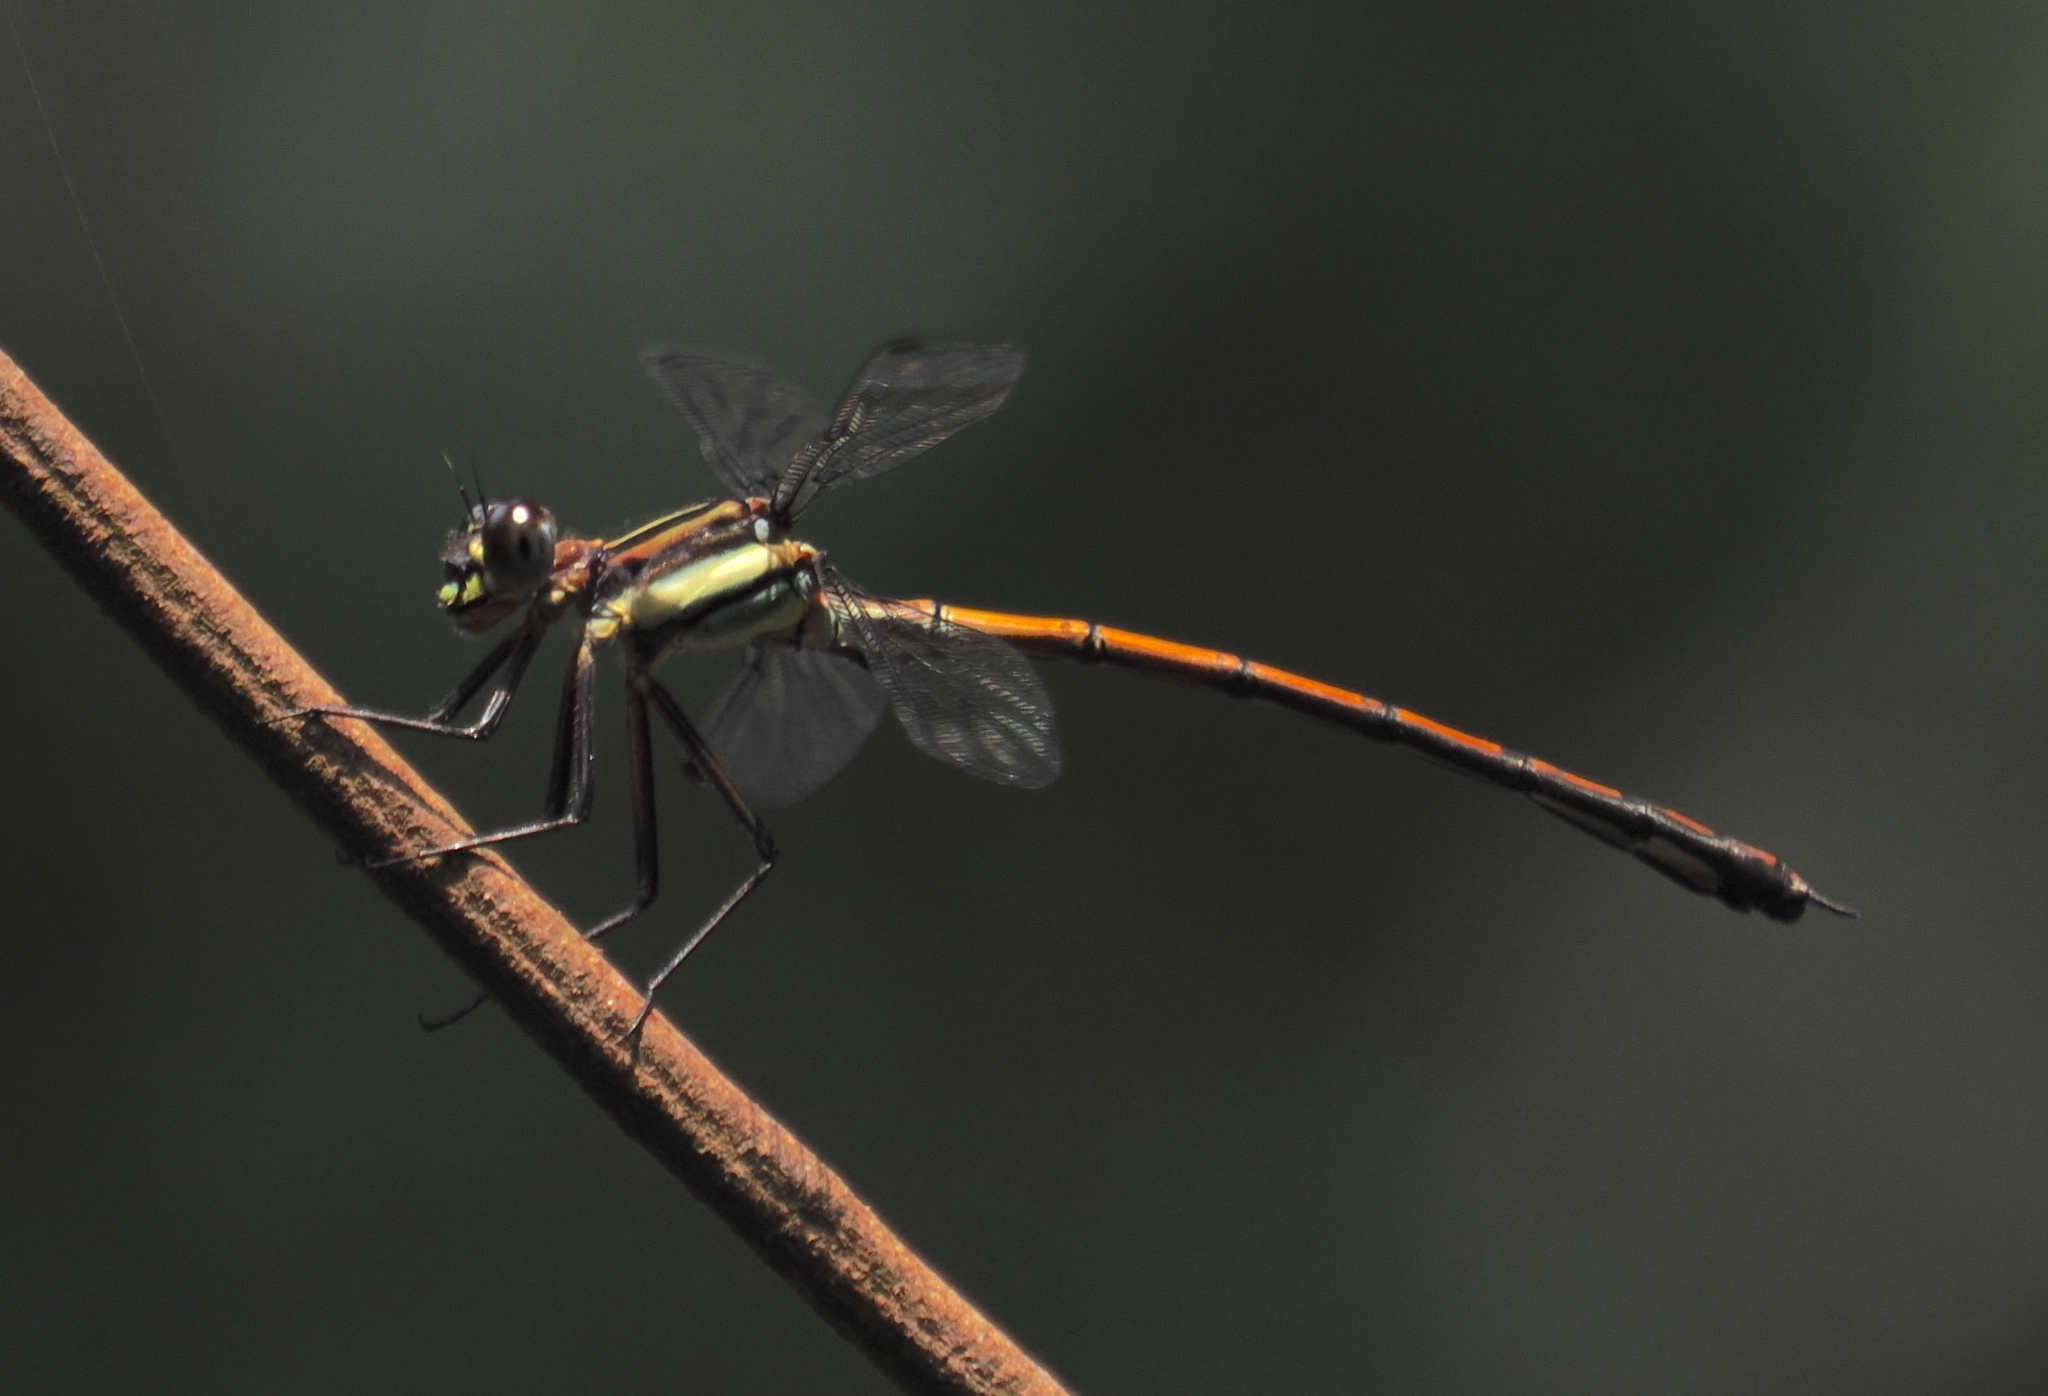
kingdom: Animalia
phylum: Arthropoda
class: Insecta
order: Odonata
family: Philogangidae
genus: Philoganga
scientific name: Philoganga loringae
